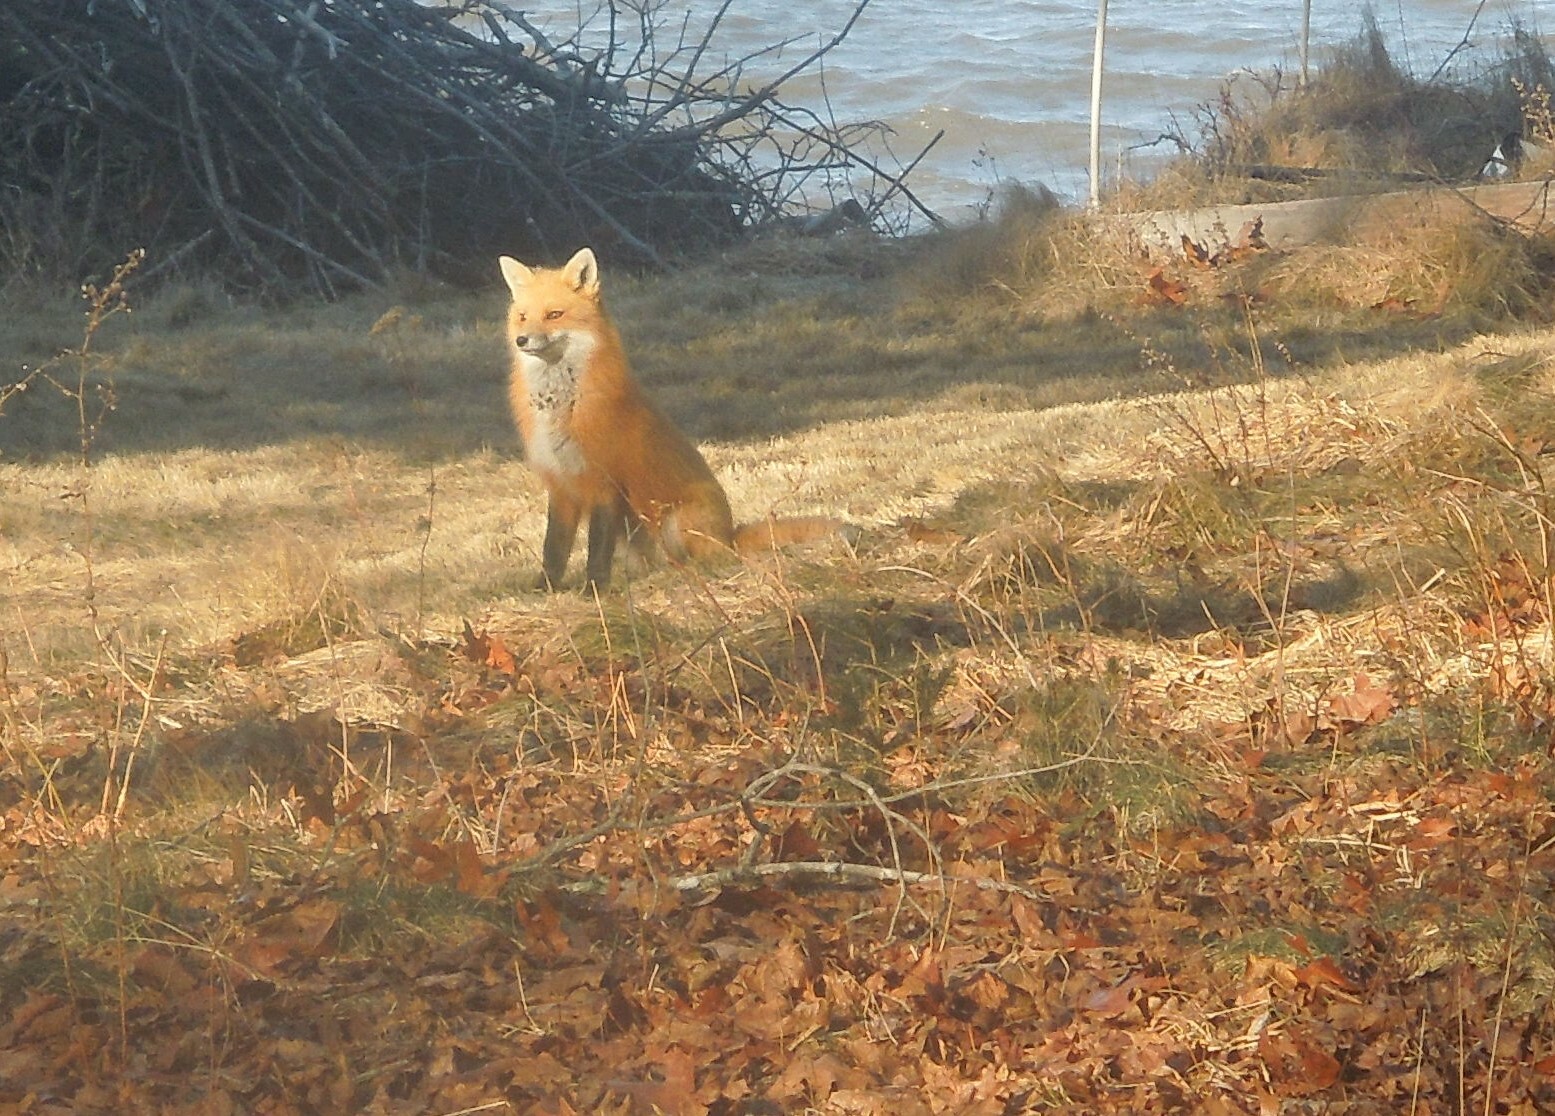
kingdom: Animalia
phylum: Chordata
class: Mammalia
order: Carnivora
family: Canidae
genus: Vulpes
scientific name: Vulpes vulpes
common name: Red fox
